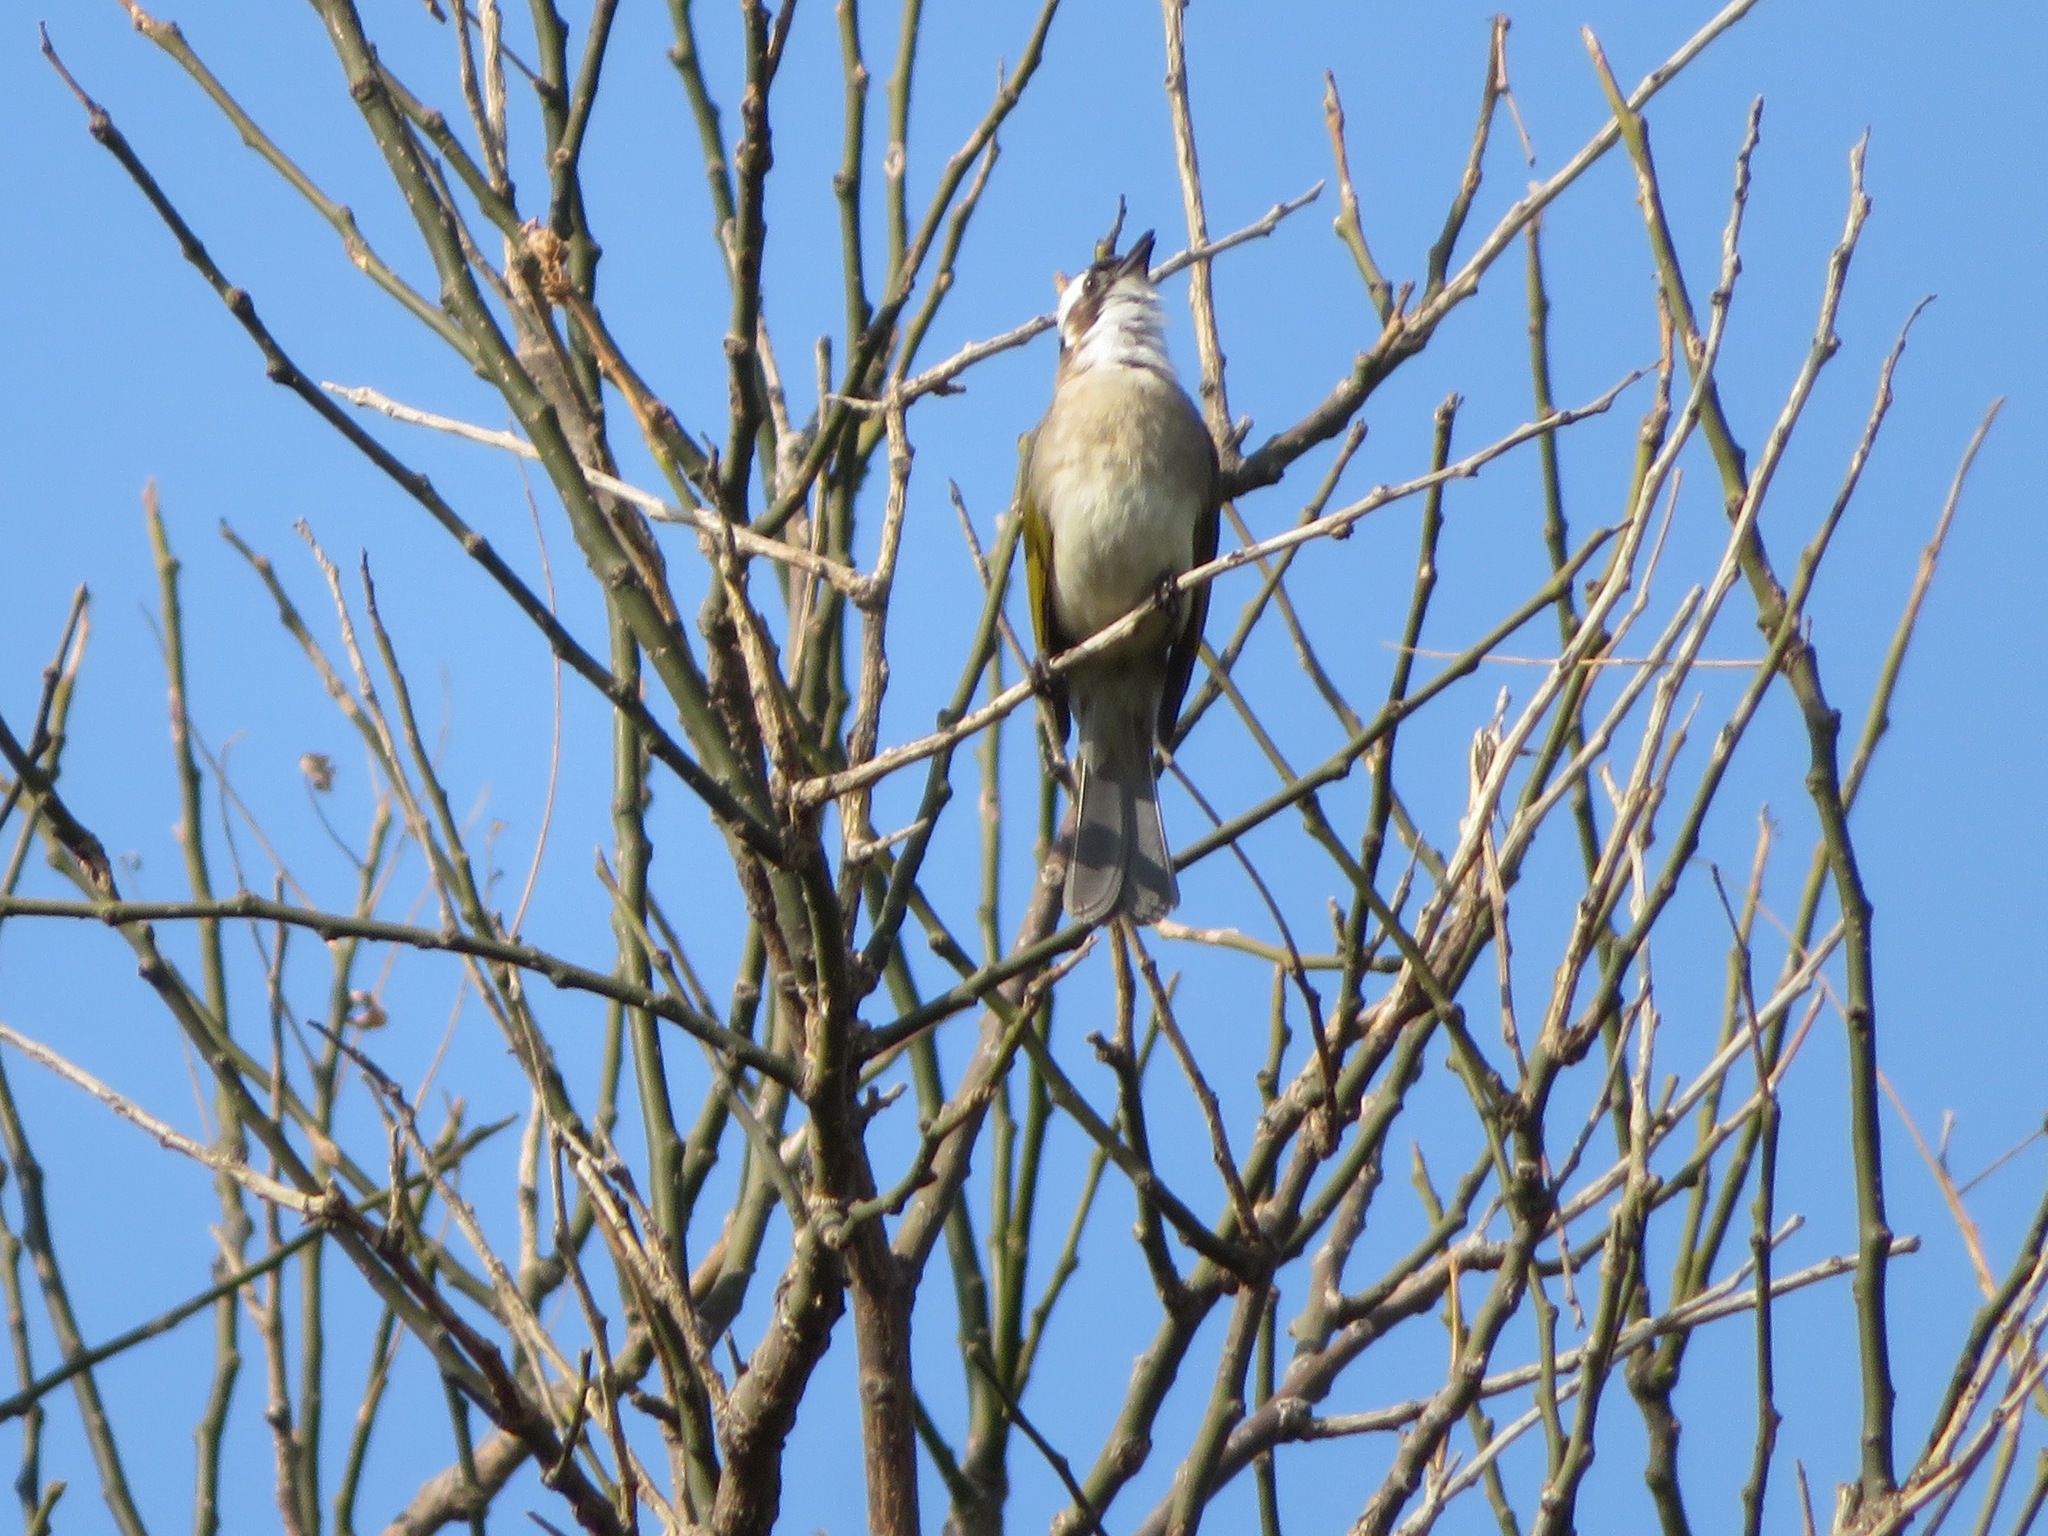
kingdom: Animalia
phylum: Chordata
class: Aves
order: Passeriformes
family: Pycnonotidae
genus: Pycnonotus
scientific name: Pycnonotus sinensis
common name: Light-vented bulbul
